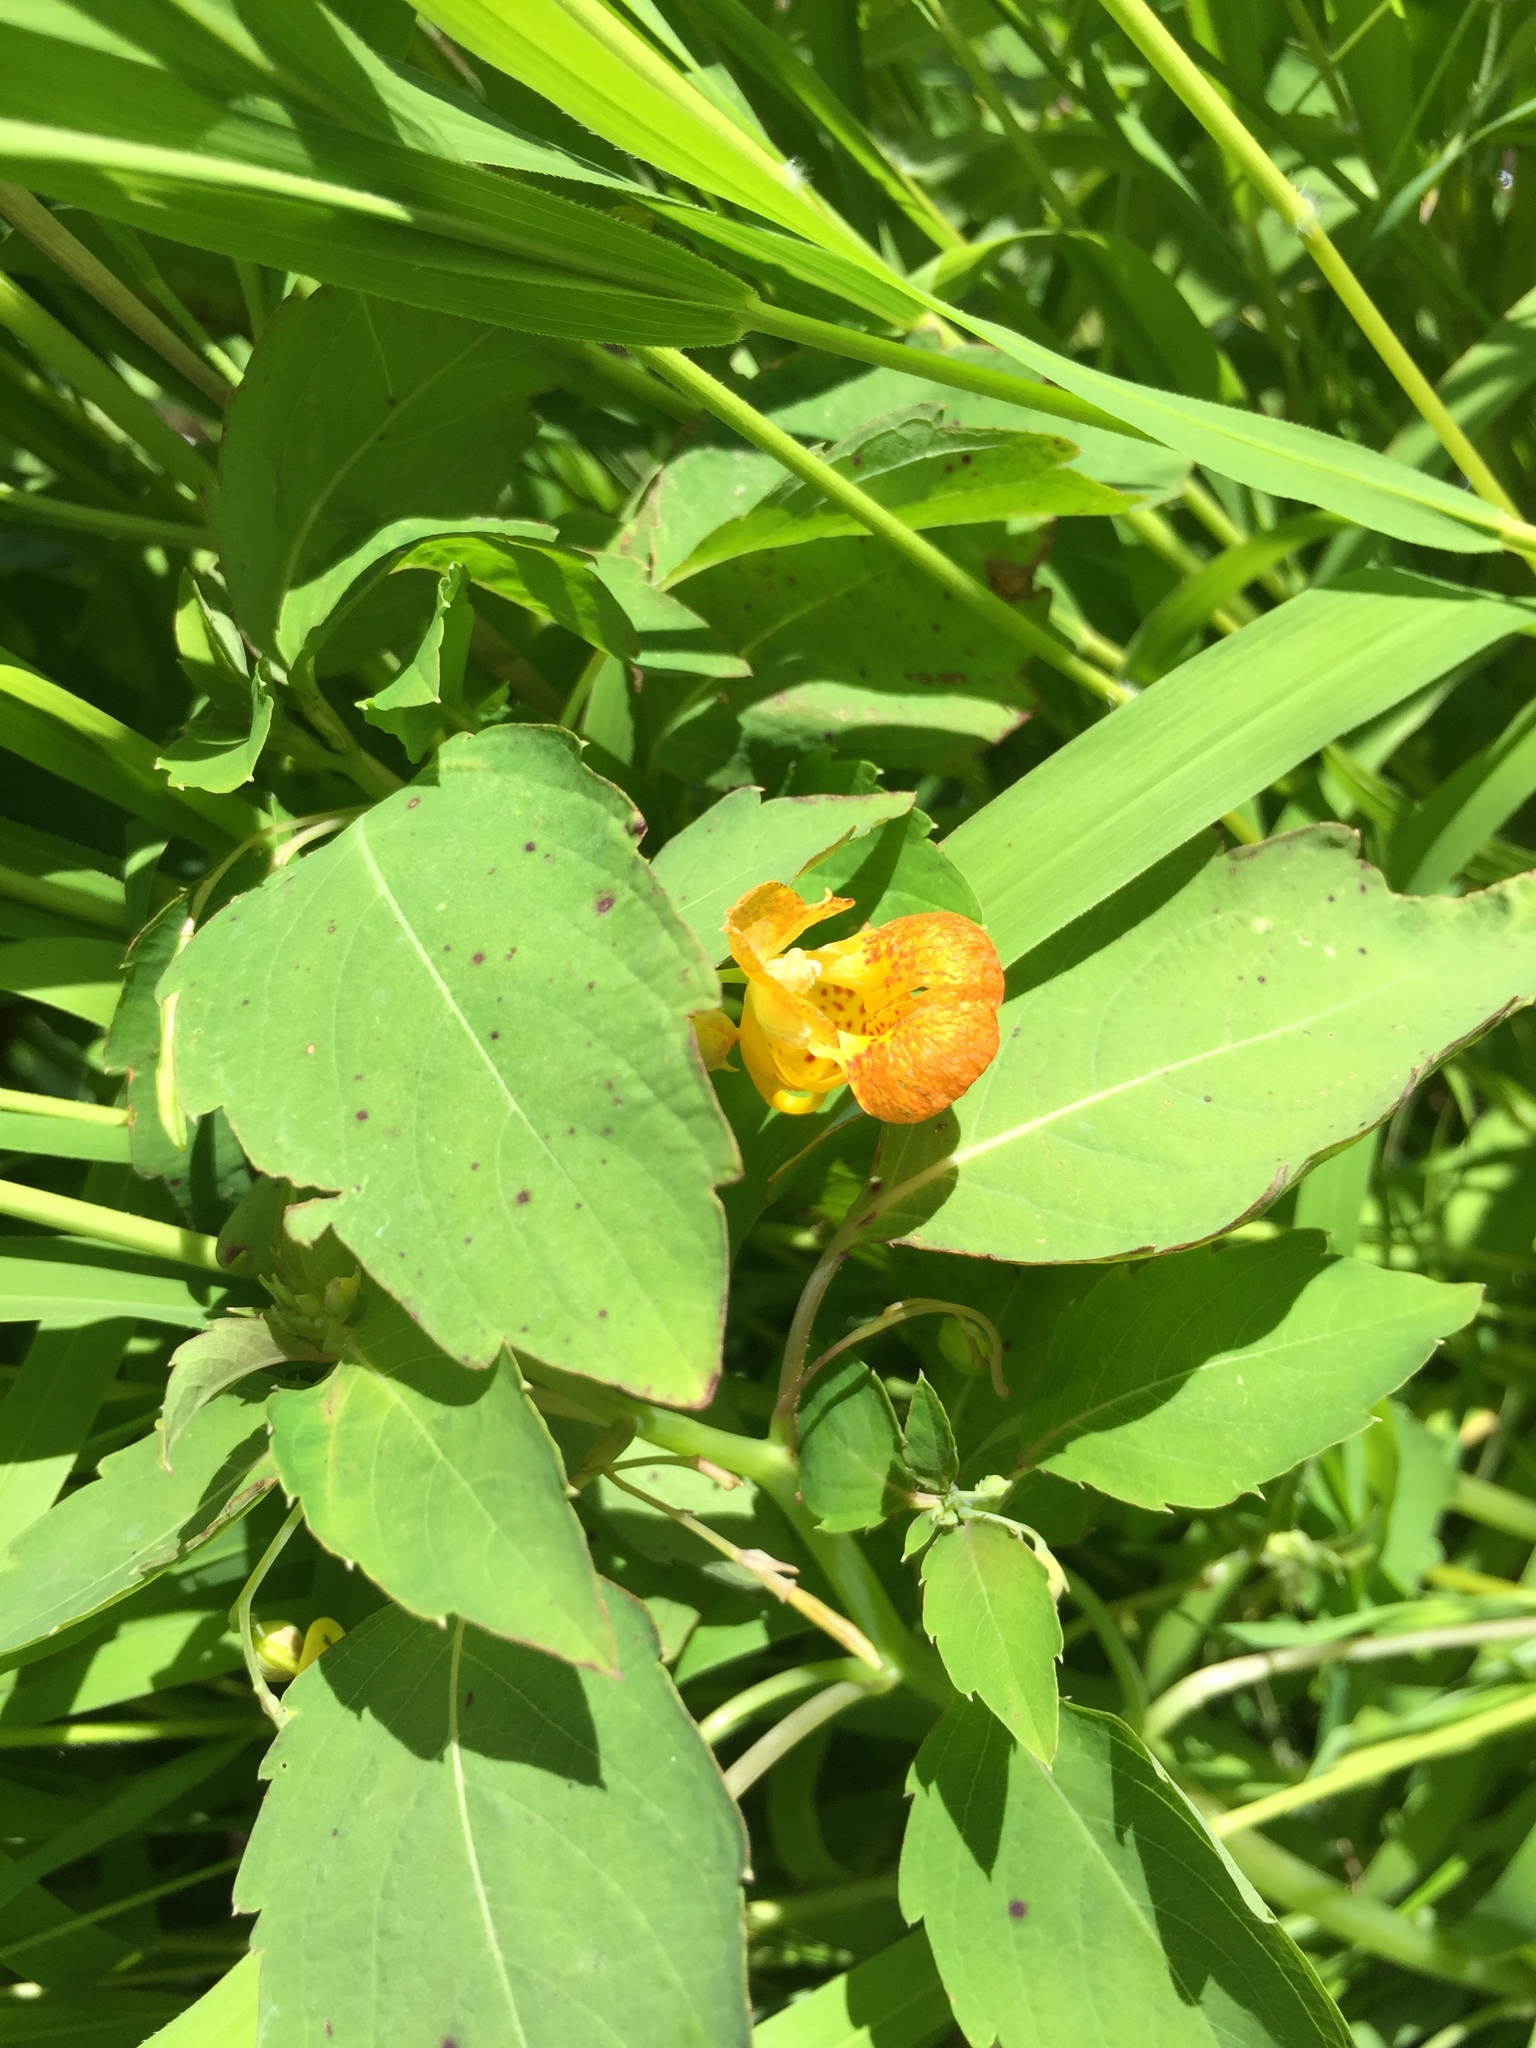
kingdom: Plantae
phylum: Tracheophyta
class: Magnoliopsida
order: Ericales
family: Balsaminaceae
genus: Impatiens
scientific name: Impatiens capensis
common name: Orange balsam
